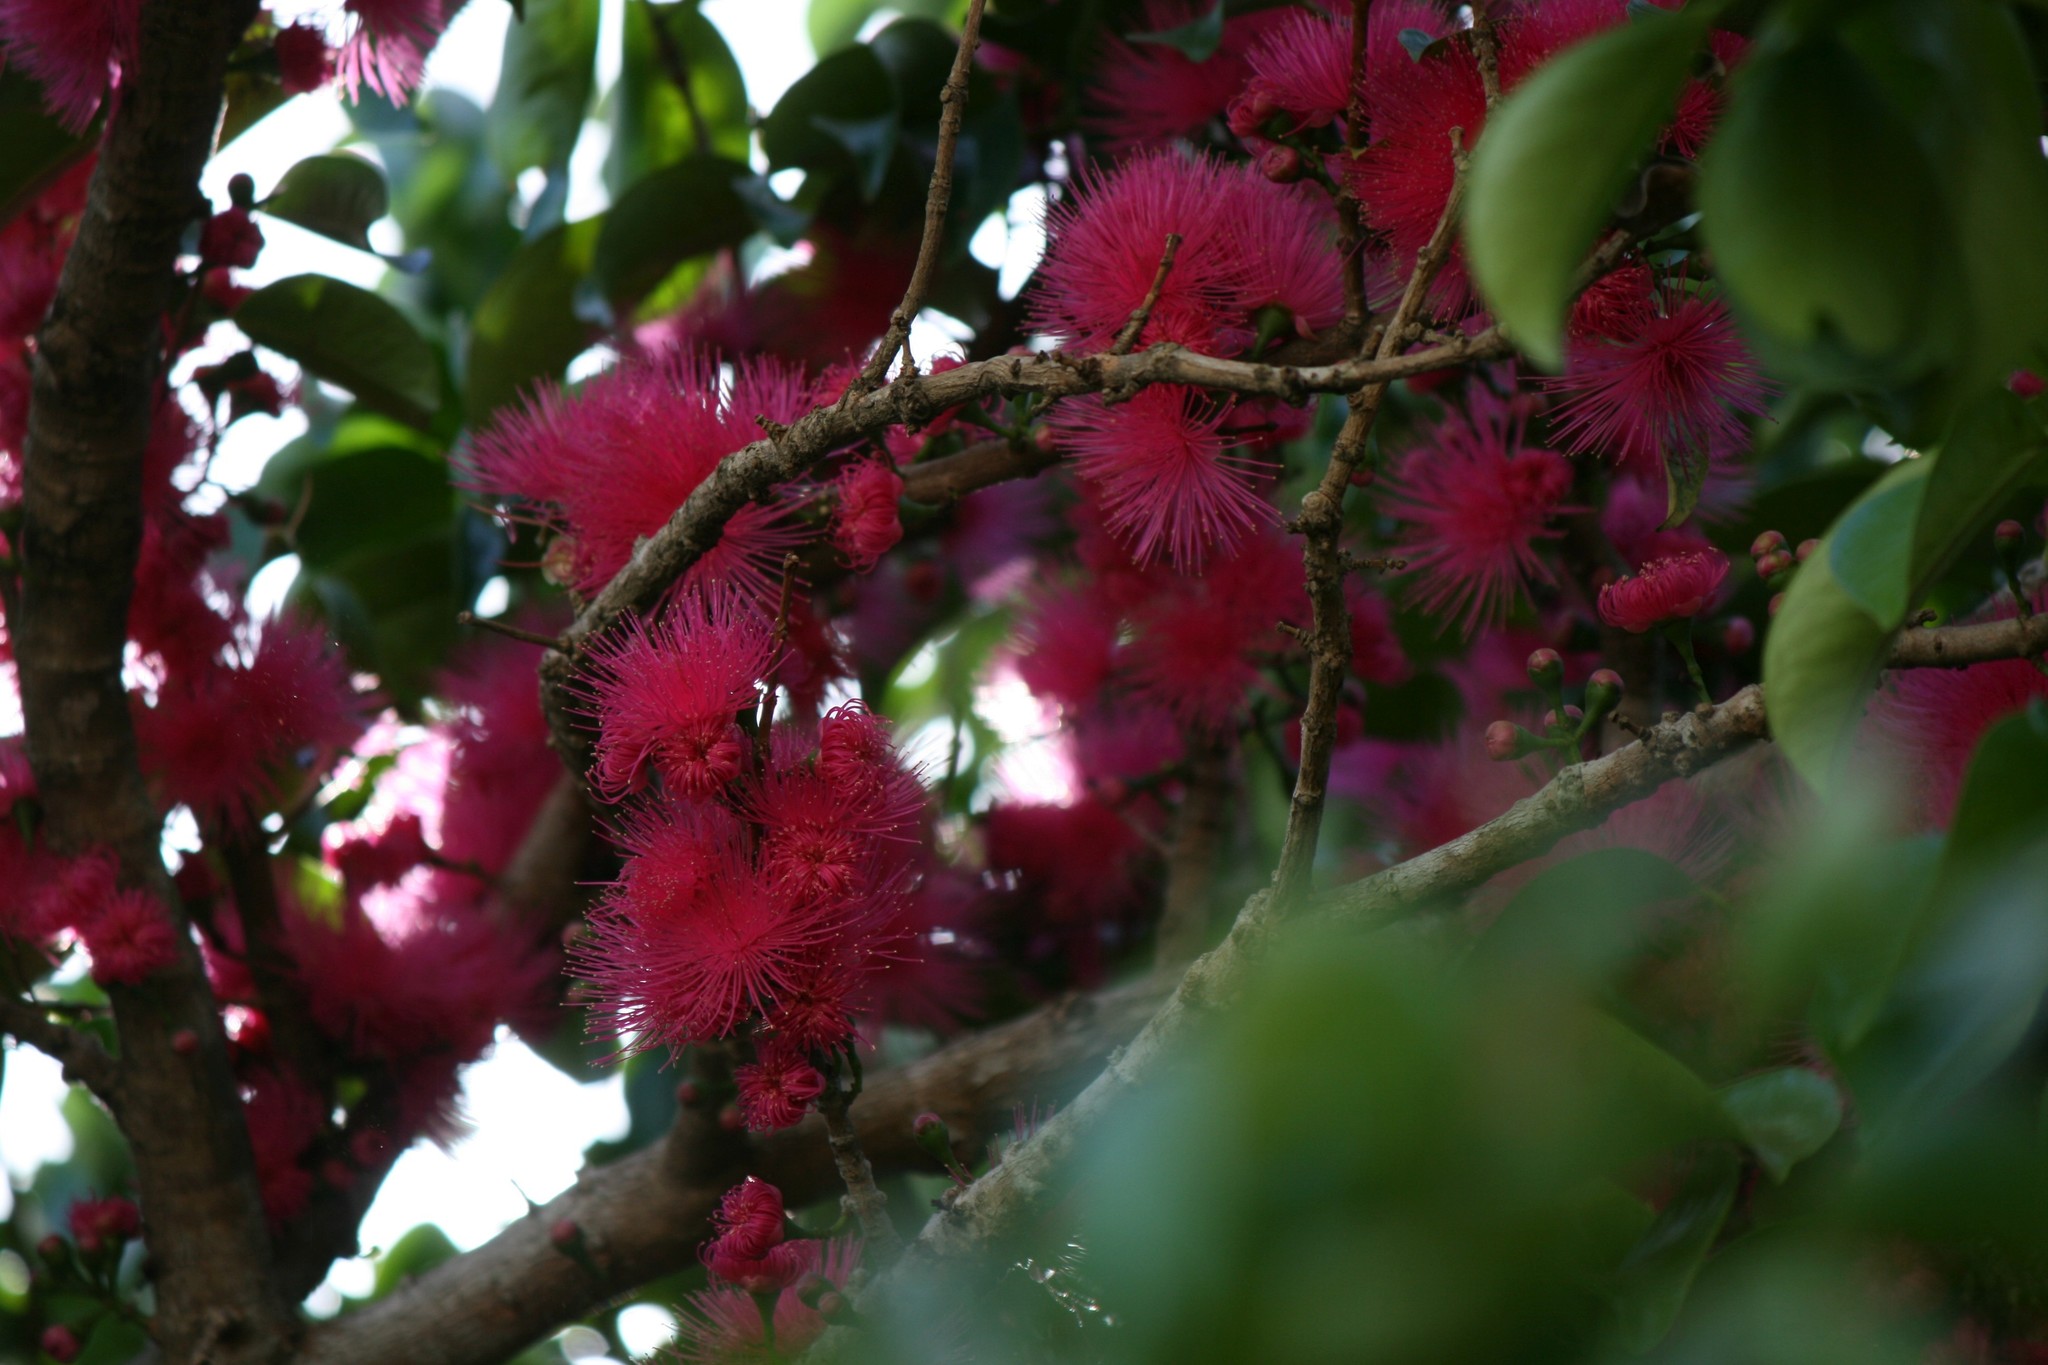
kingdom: Plantae
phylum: Tracheophyta
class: Magnoliopsida
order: Myrtales
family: Myrtaceae
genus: Syzygium
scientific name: Syzygium malaccense
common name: Malaysian apple
